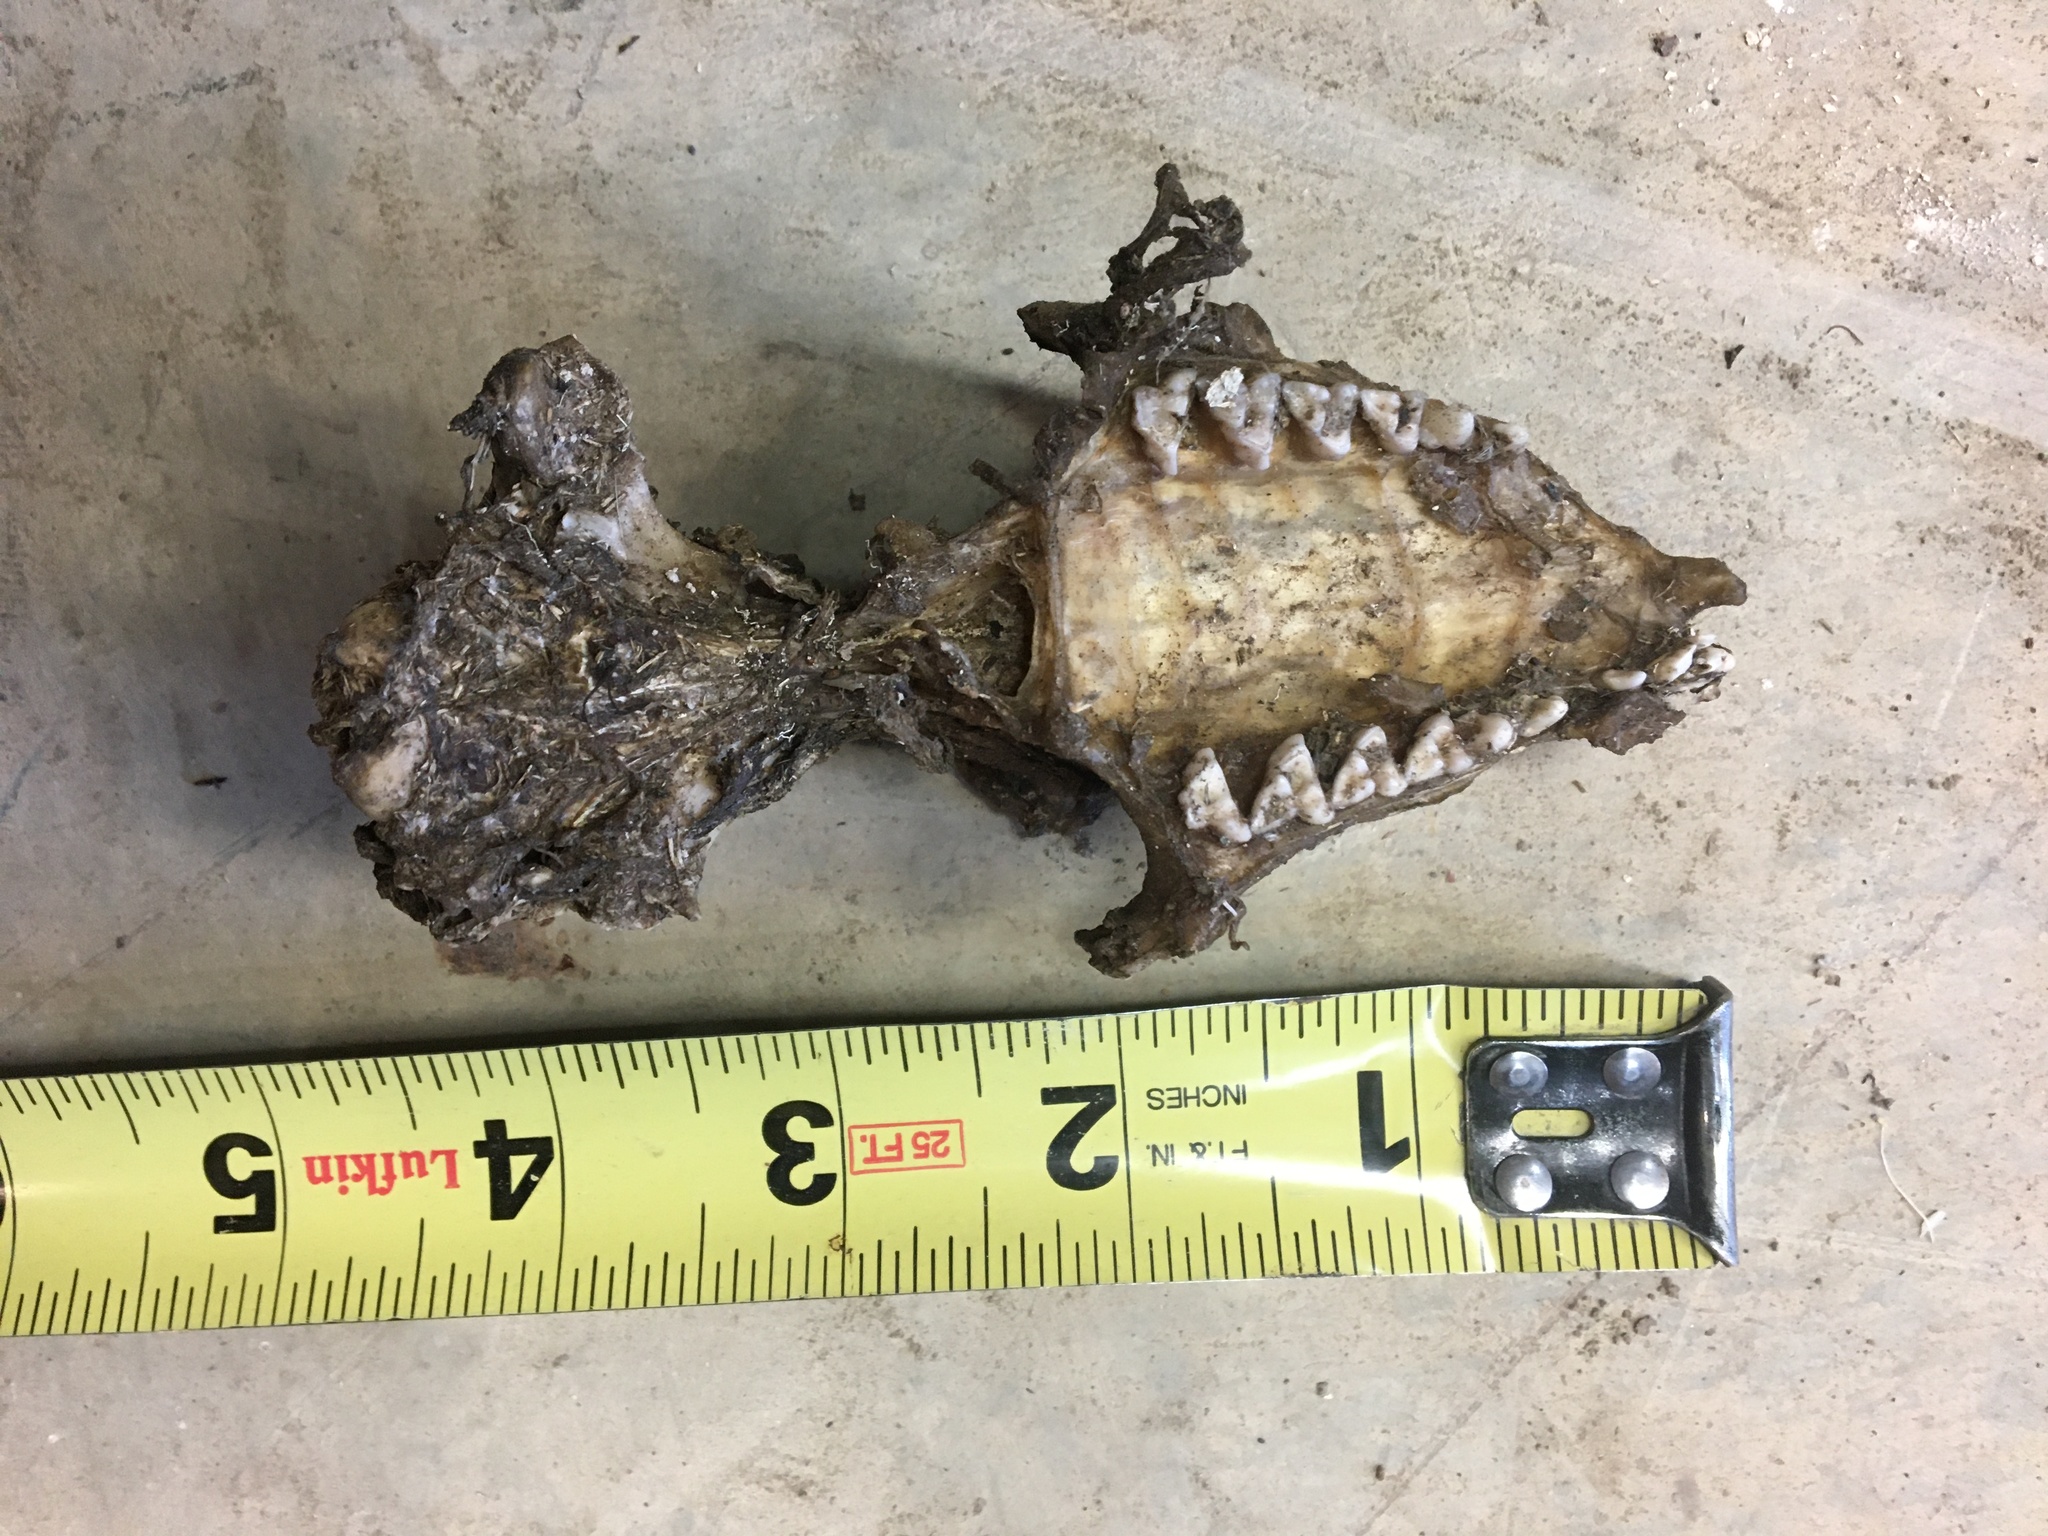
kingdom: Animalia
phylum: Chordata
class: Mammalia
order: Didelphimorphia
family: Didelphidae
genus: Didelphis
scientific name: Didelphis virginiana
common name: Virginia opossum
